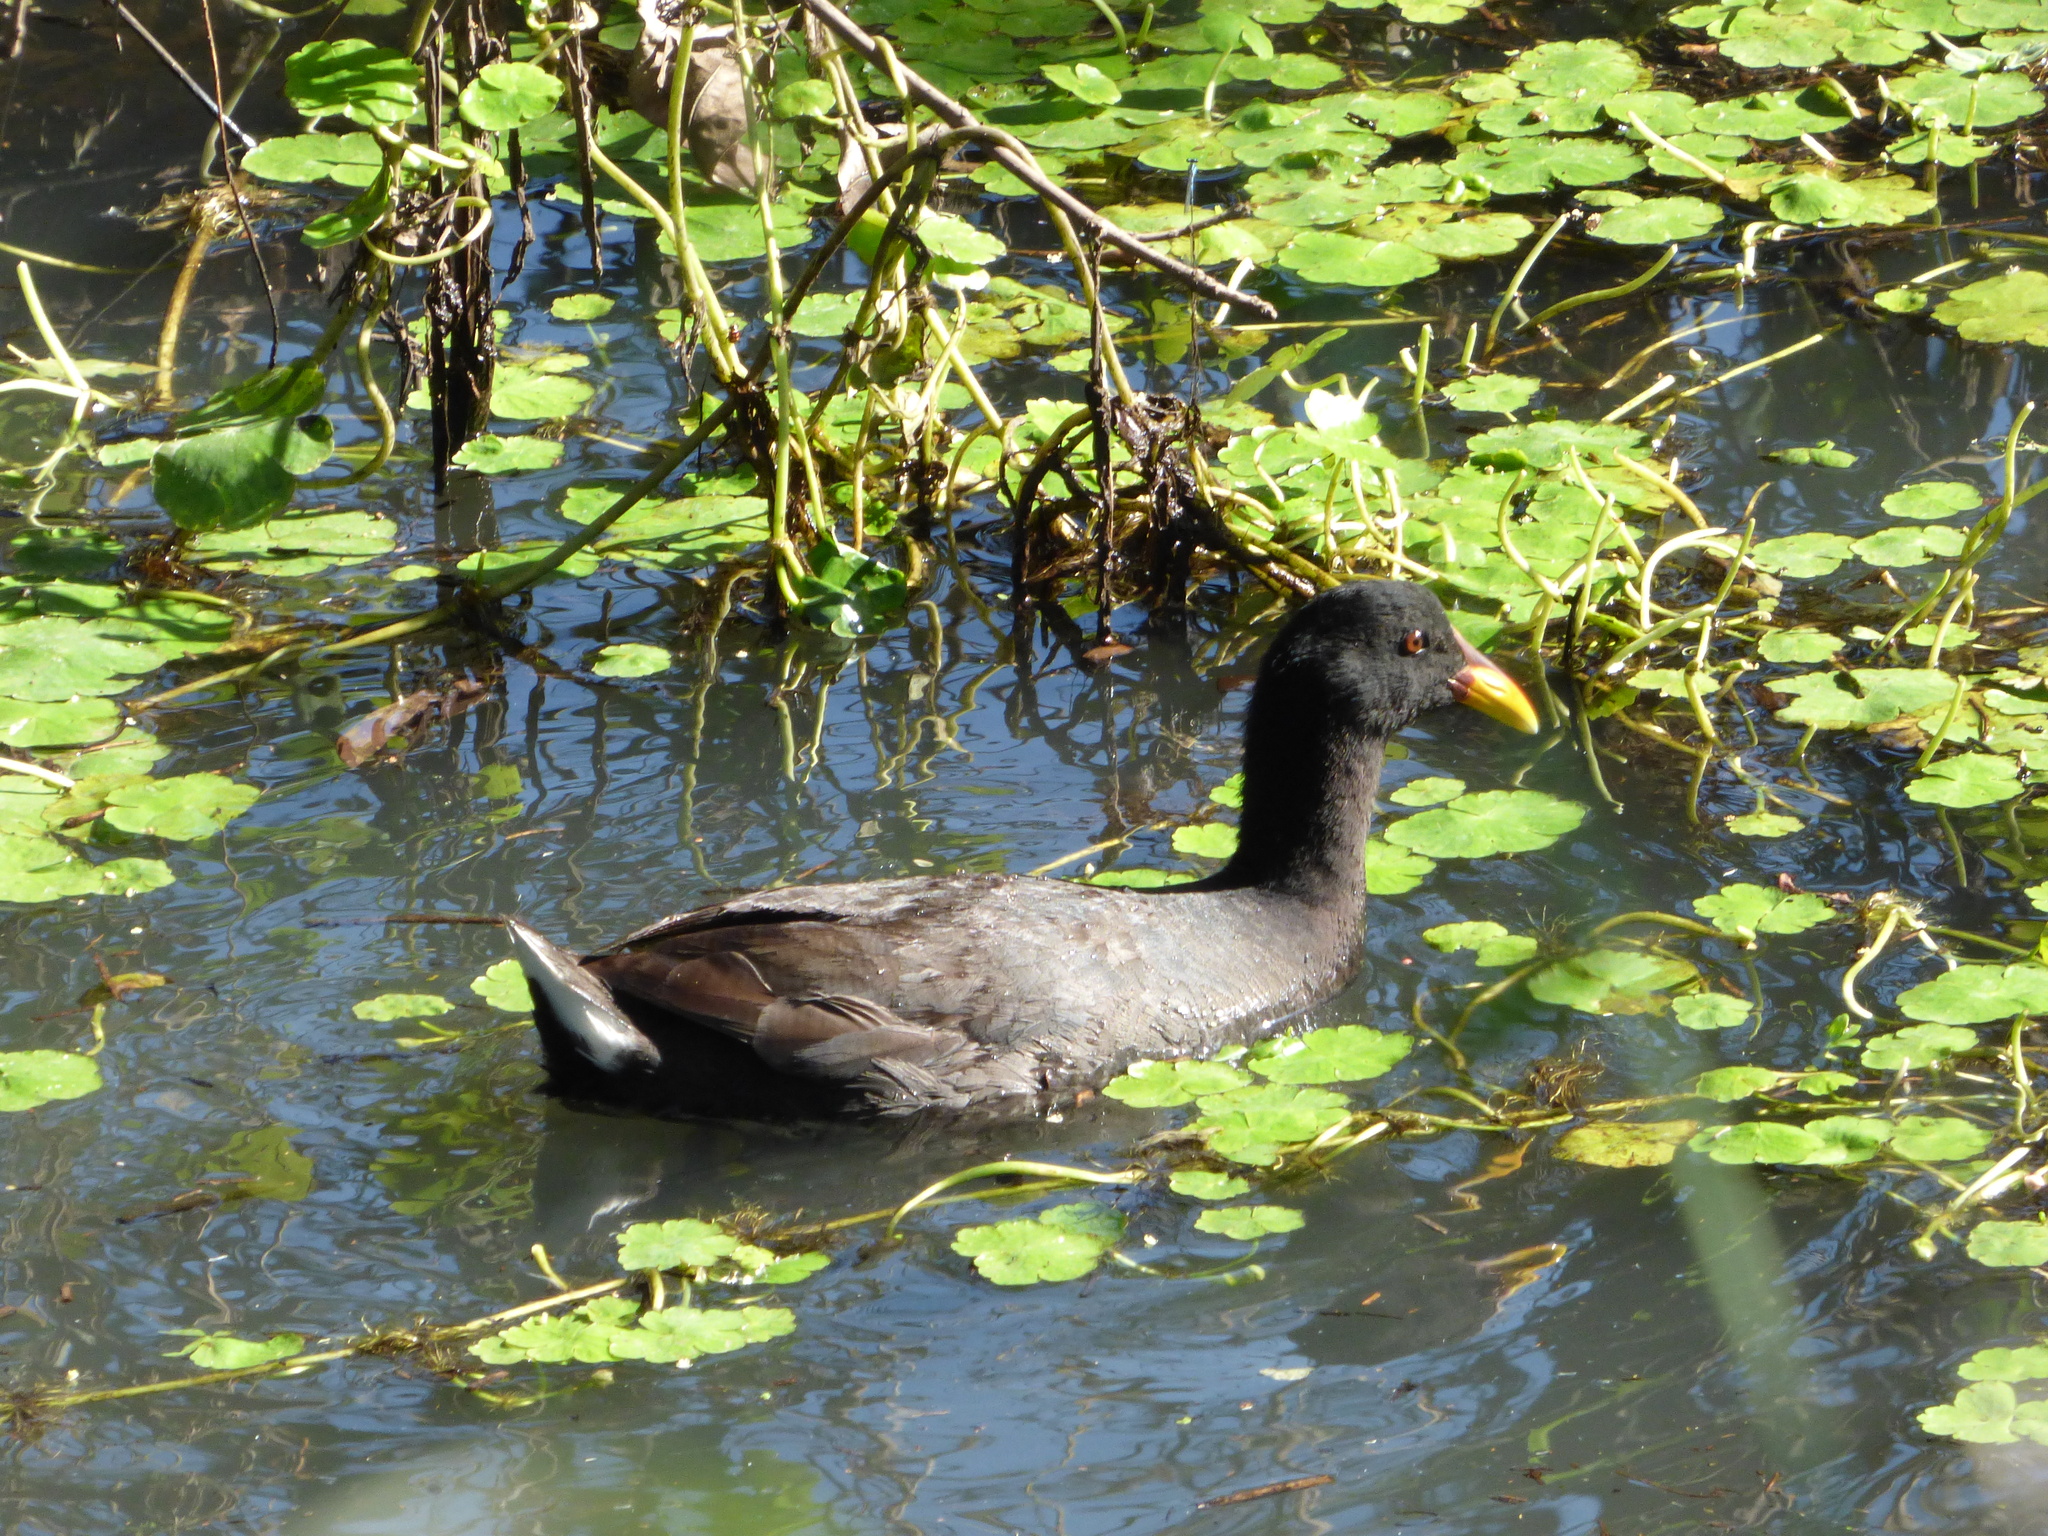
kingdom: Animalia
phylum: Chordata
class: Aves
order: Gruiformes
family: Rallidae
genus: Fulica
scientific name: Fulica rufifrons
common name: Red-fronted coot
